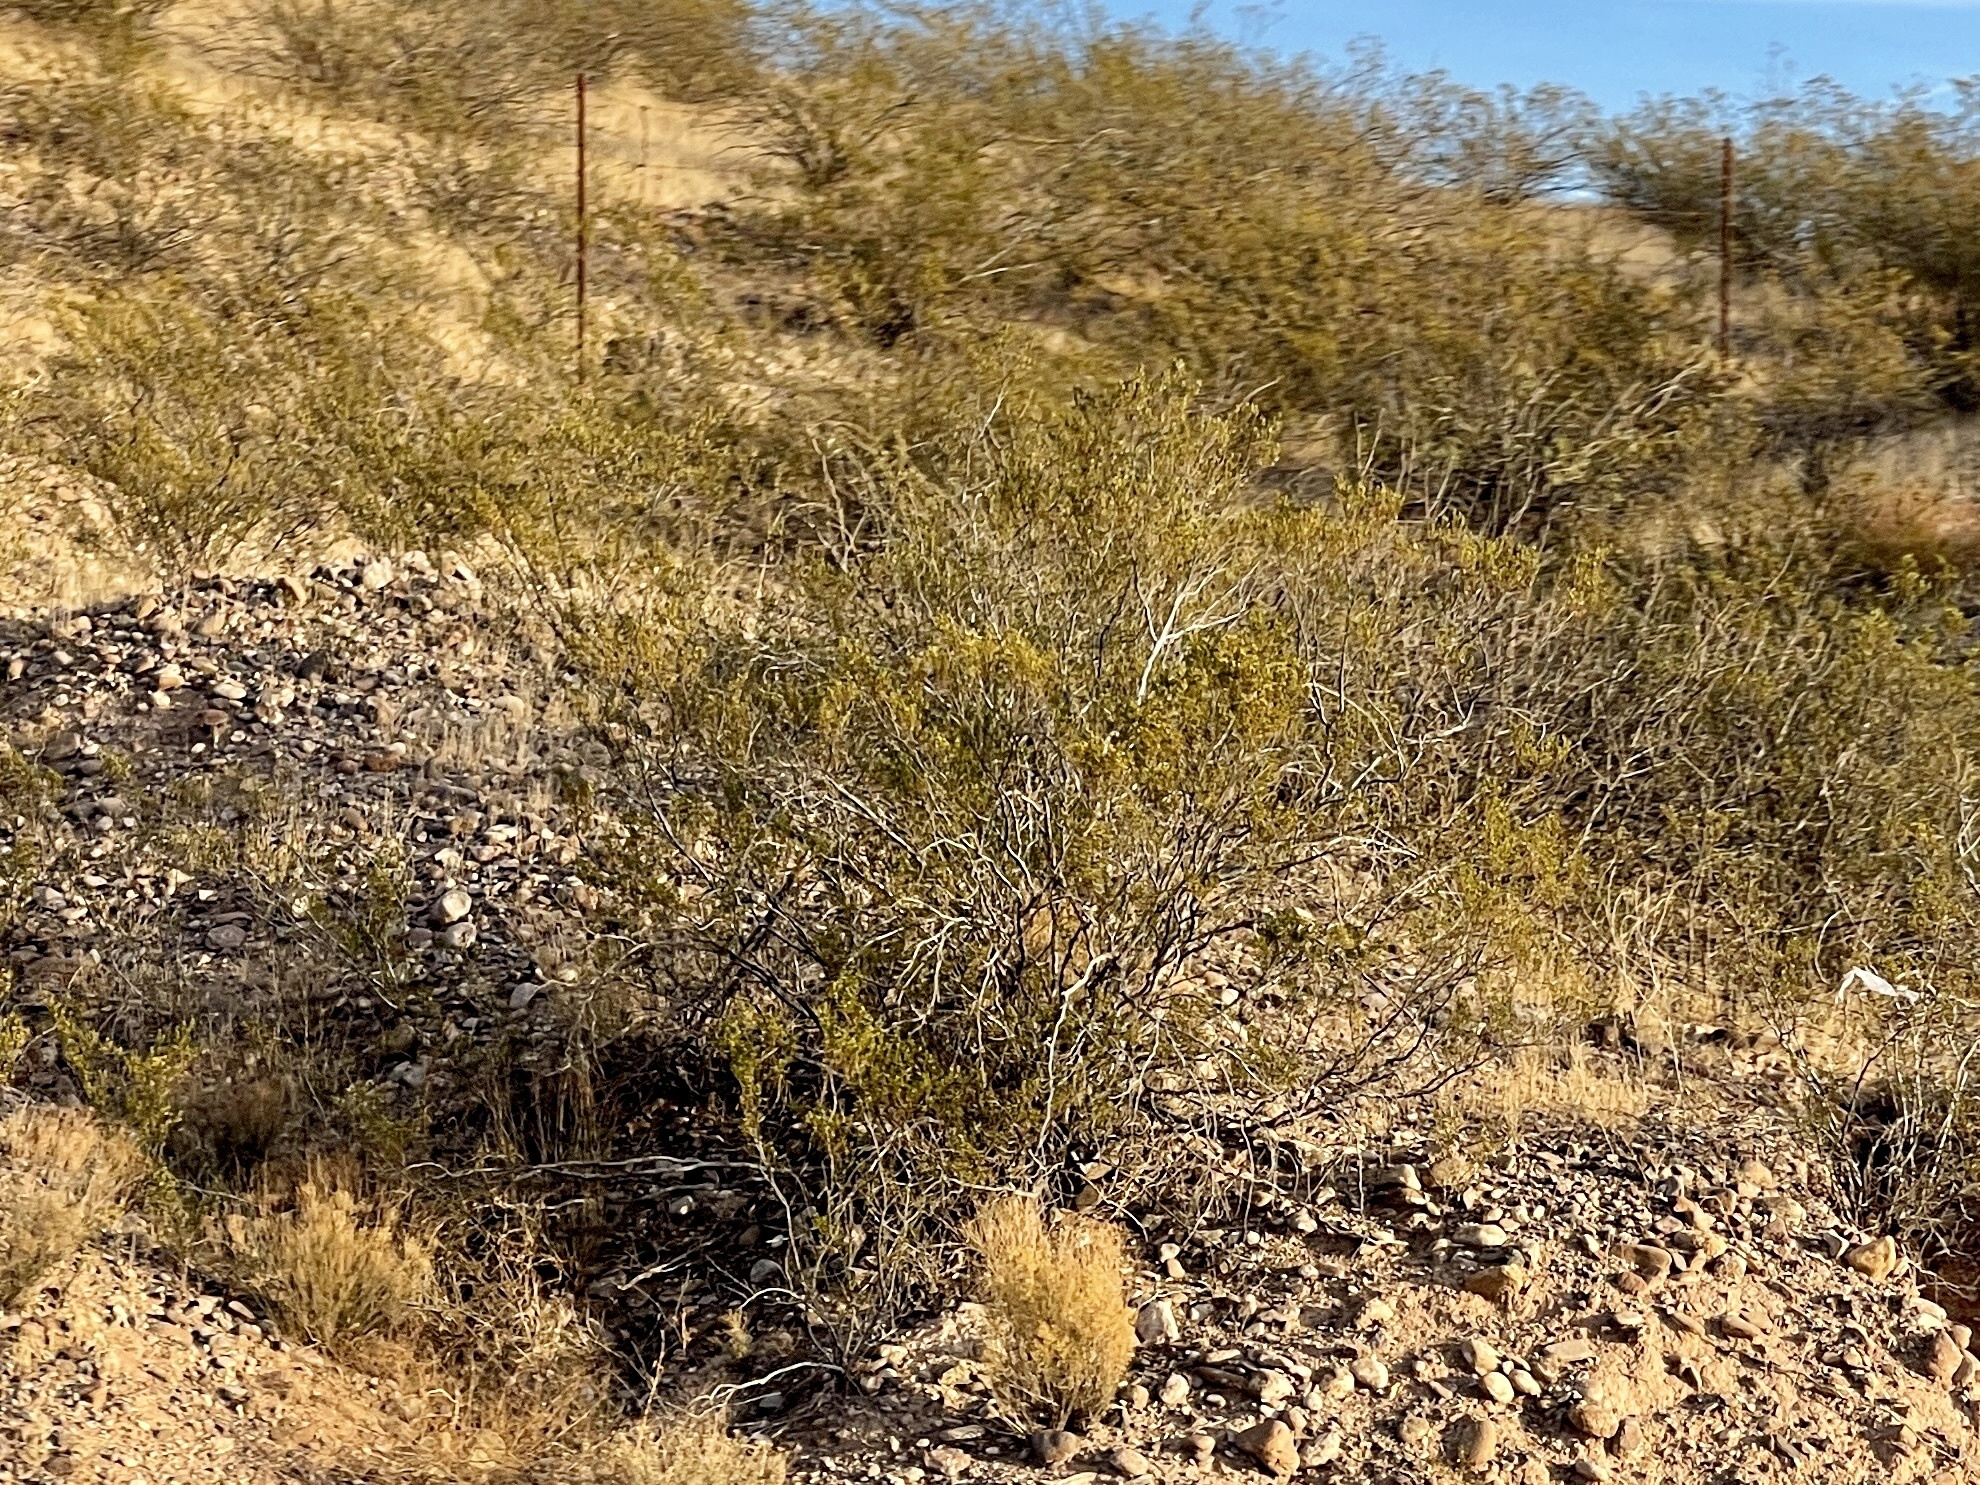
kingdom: Plantae
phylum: Tracheophyta
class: Magnoliopsida
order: Zygophyllales
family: Zygophyllaceae
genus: Larrea
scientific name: Larrea tridentata
